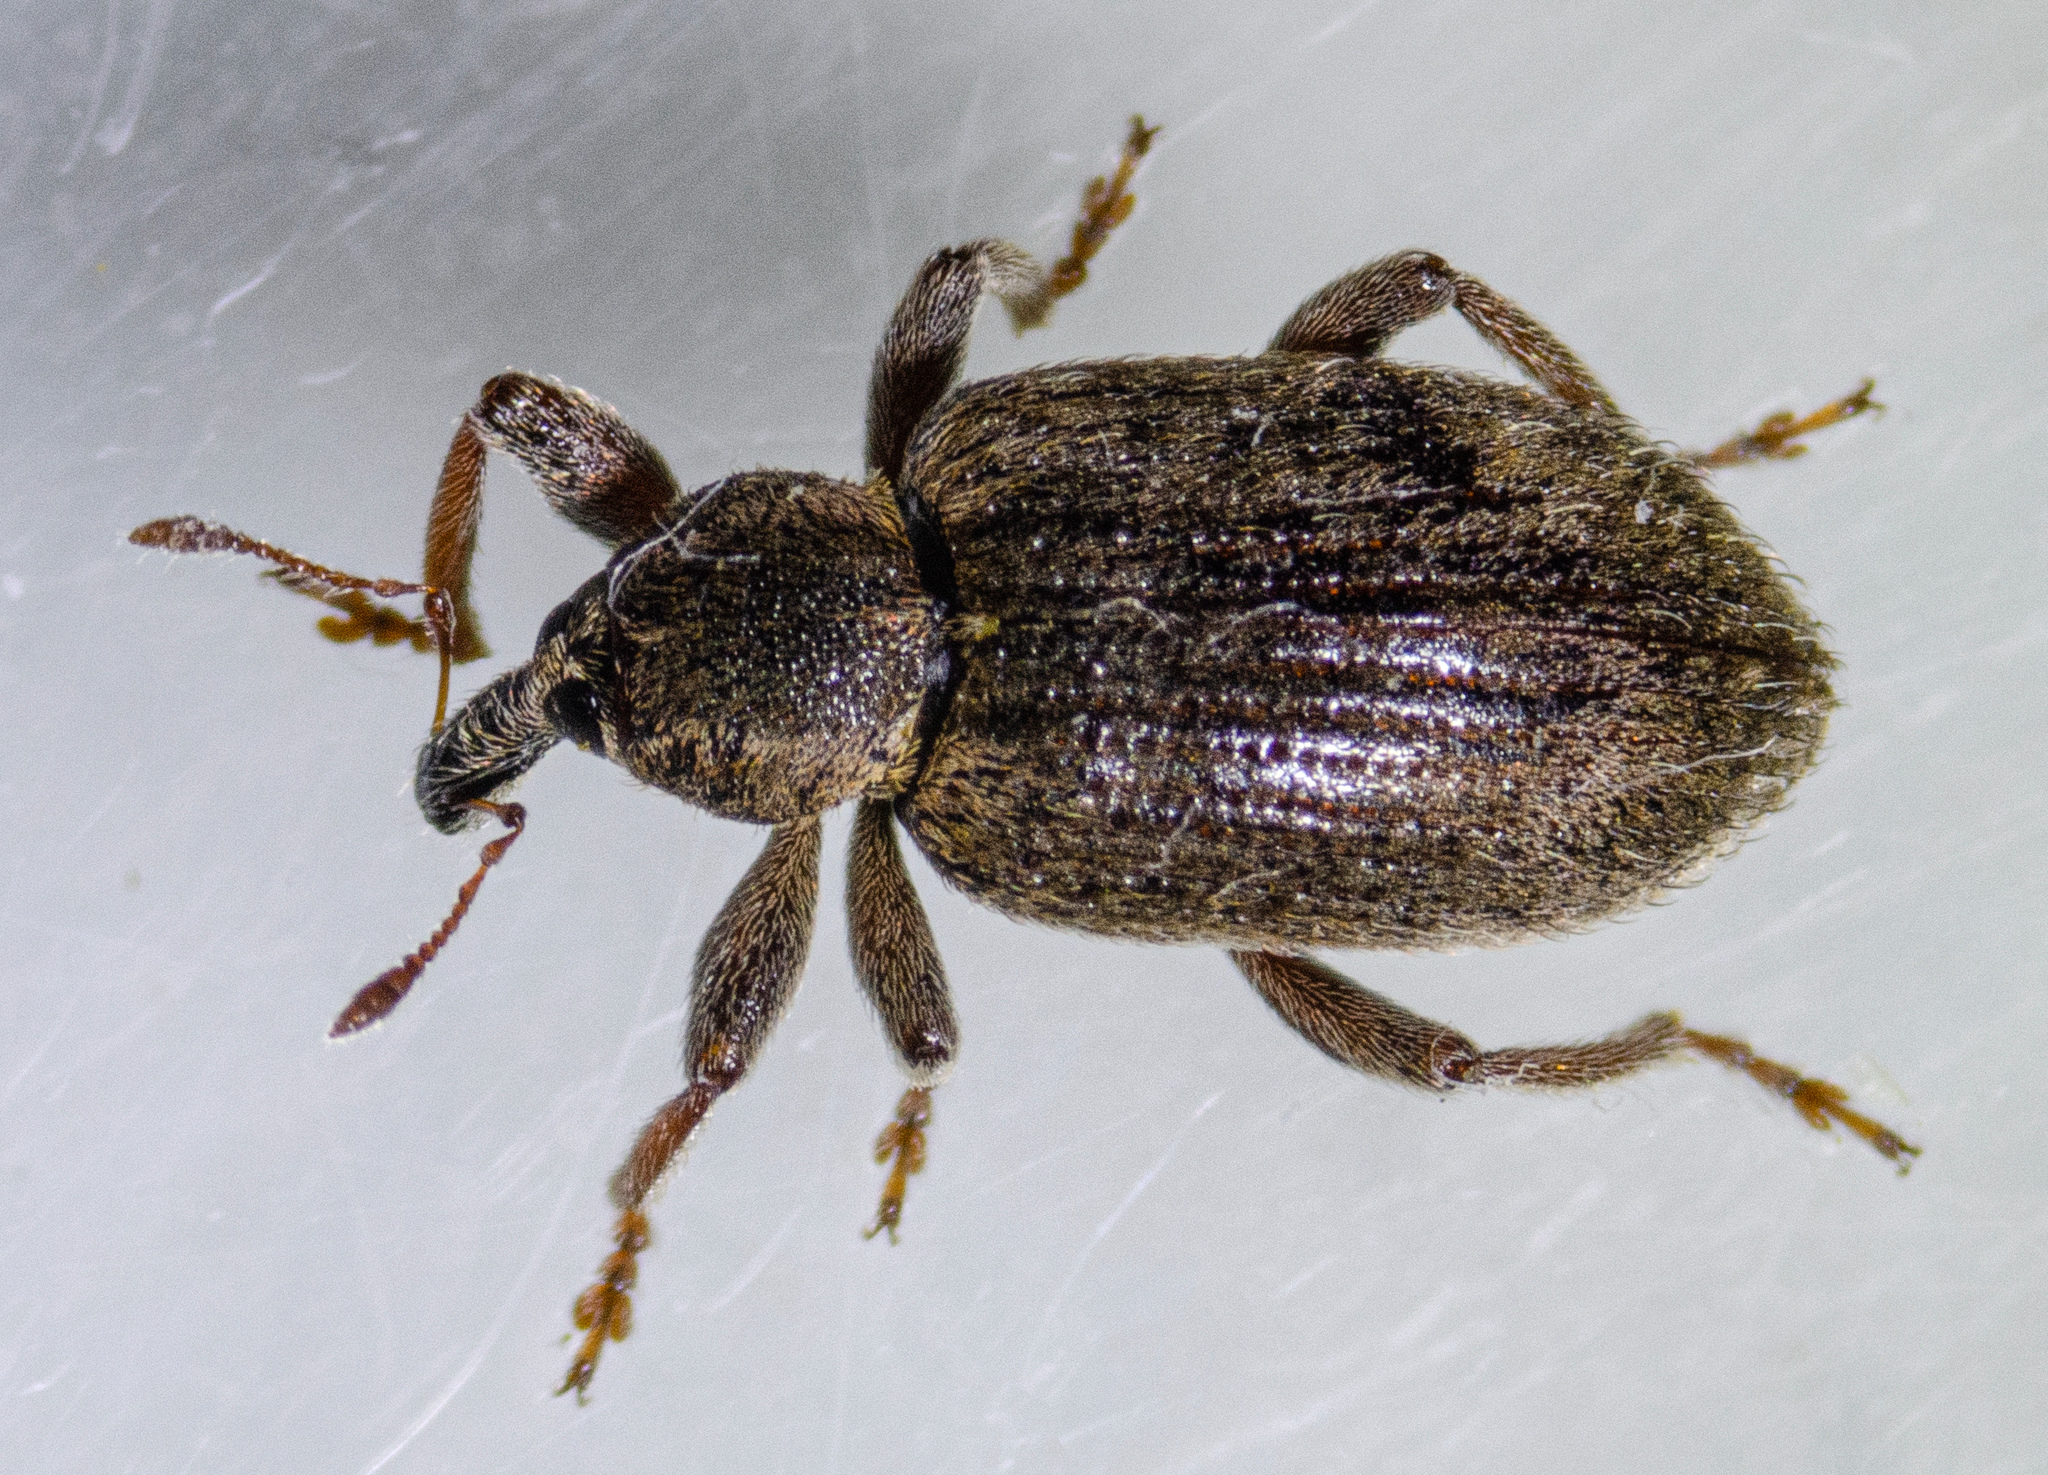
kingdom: Animalia
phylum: Arthropoda
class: Insecta
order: Coleoptera
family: Curculionidae
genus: Hypera
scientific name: Hypera postica
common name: Weevil
